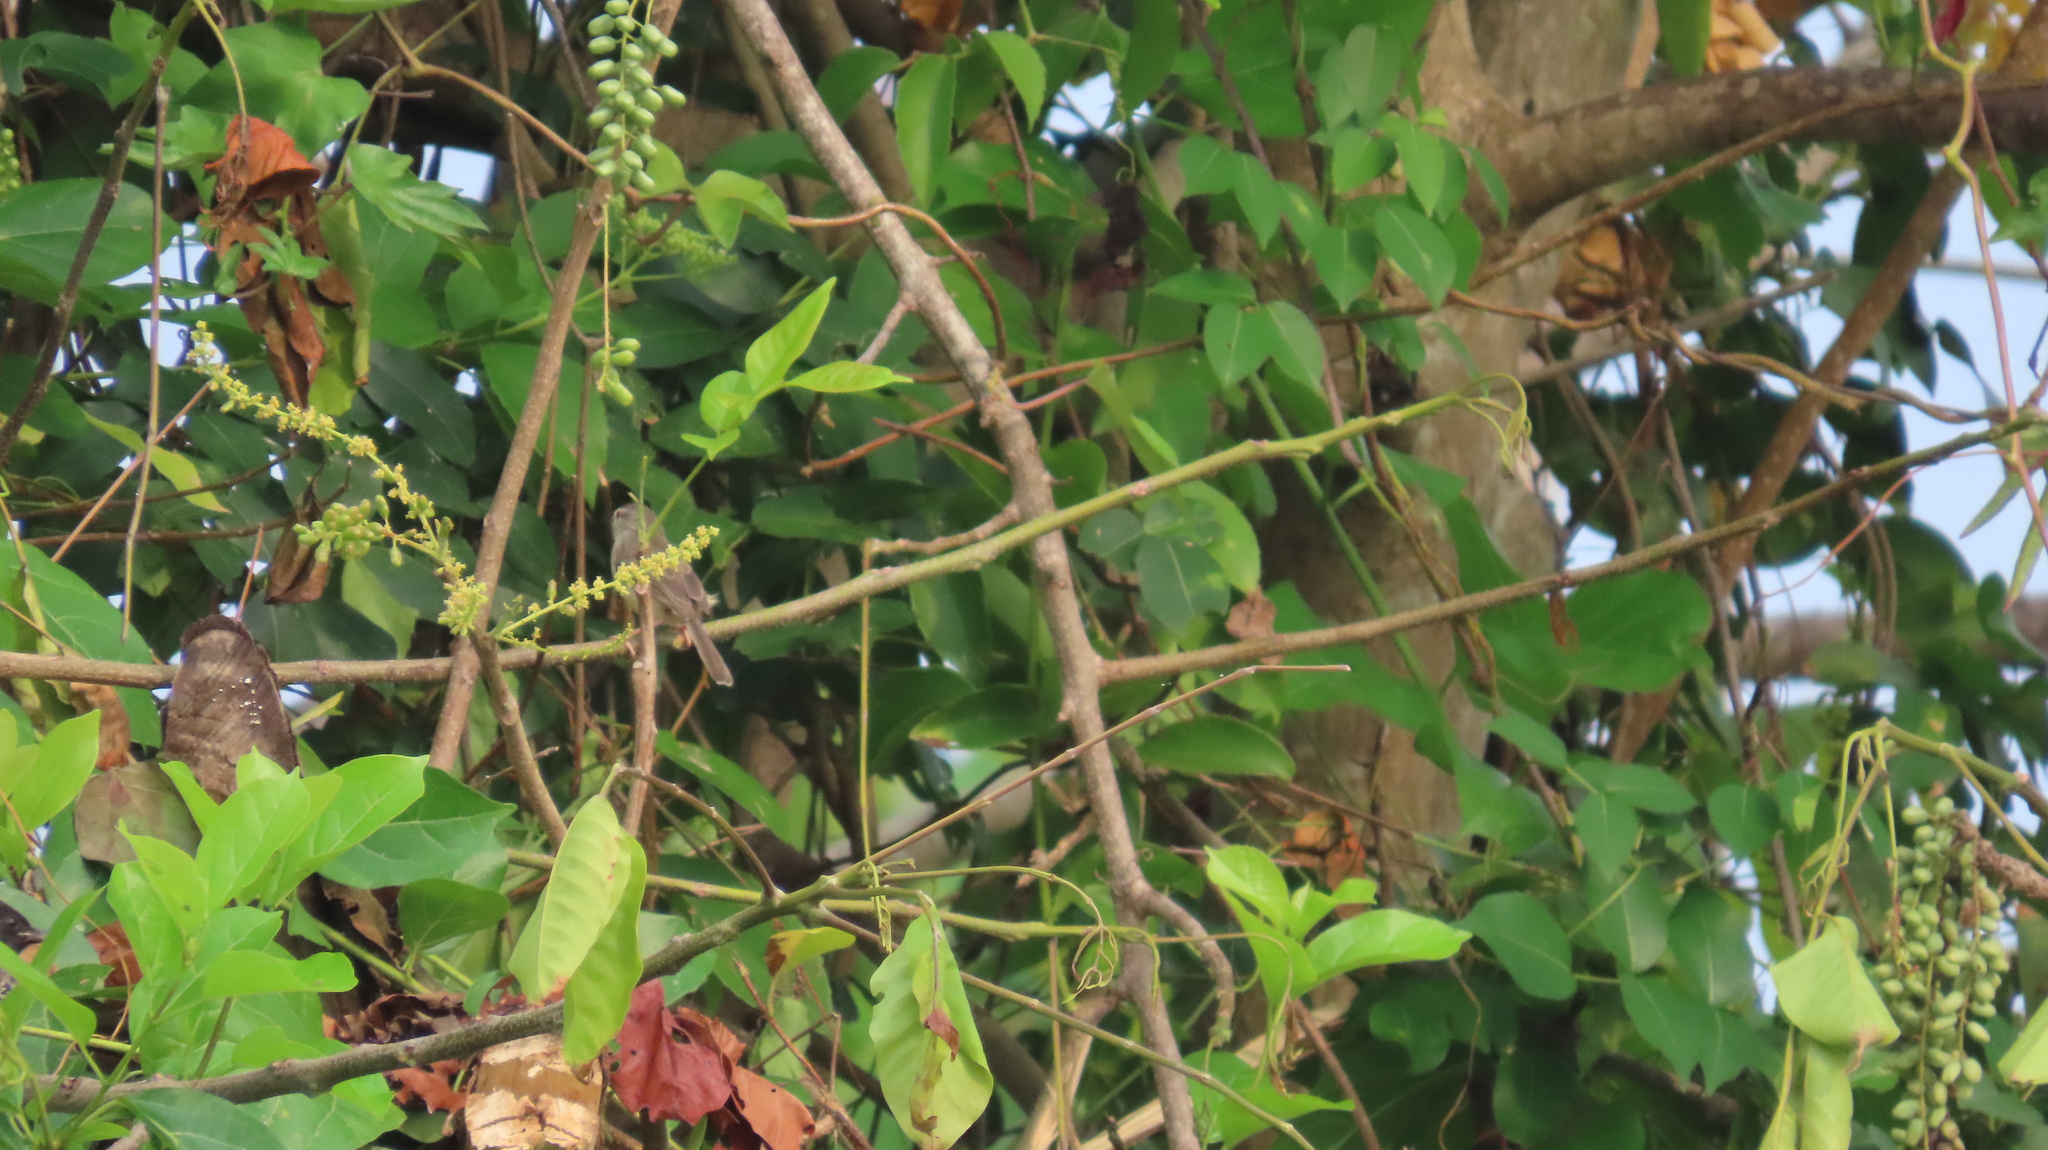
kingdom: Animalia
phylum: Chordata
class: Aves
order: Passeriformes
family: Cisticolidae
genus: Prinia
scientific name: Prinia inornata
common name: Plain prinia
